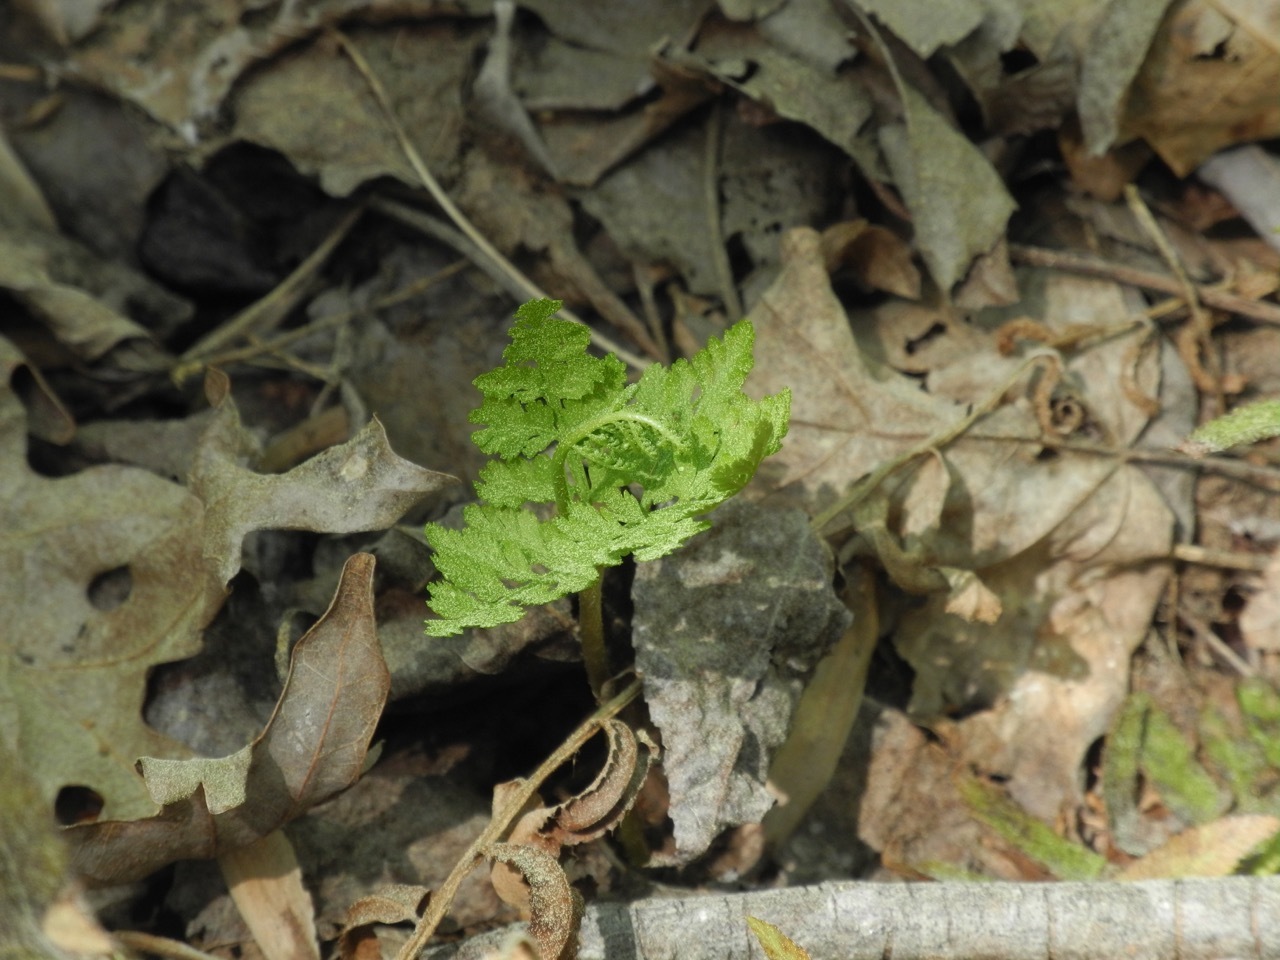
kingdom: Plantae
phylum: Tracheophyta
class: Polypodiopsida
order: Ophioglossales
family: Ophioglossaceae
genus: Botrypus
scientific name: Botrypus virginianus
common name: Common grapefern
